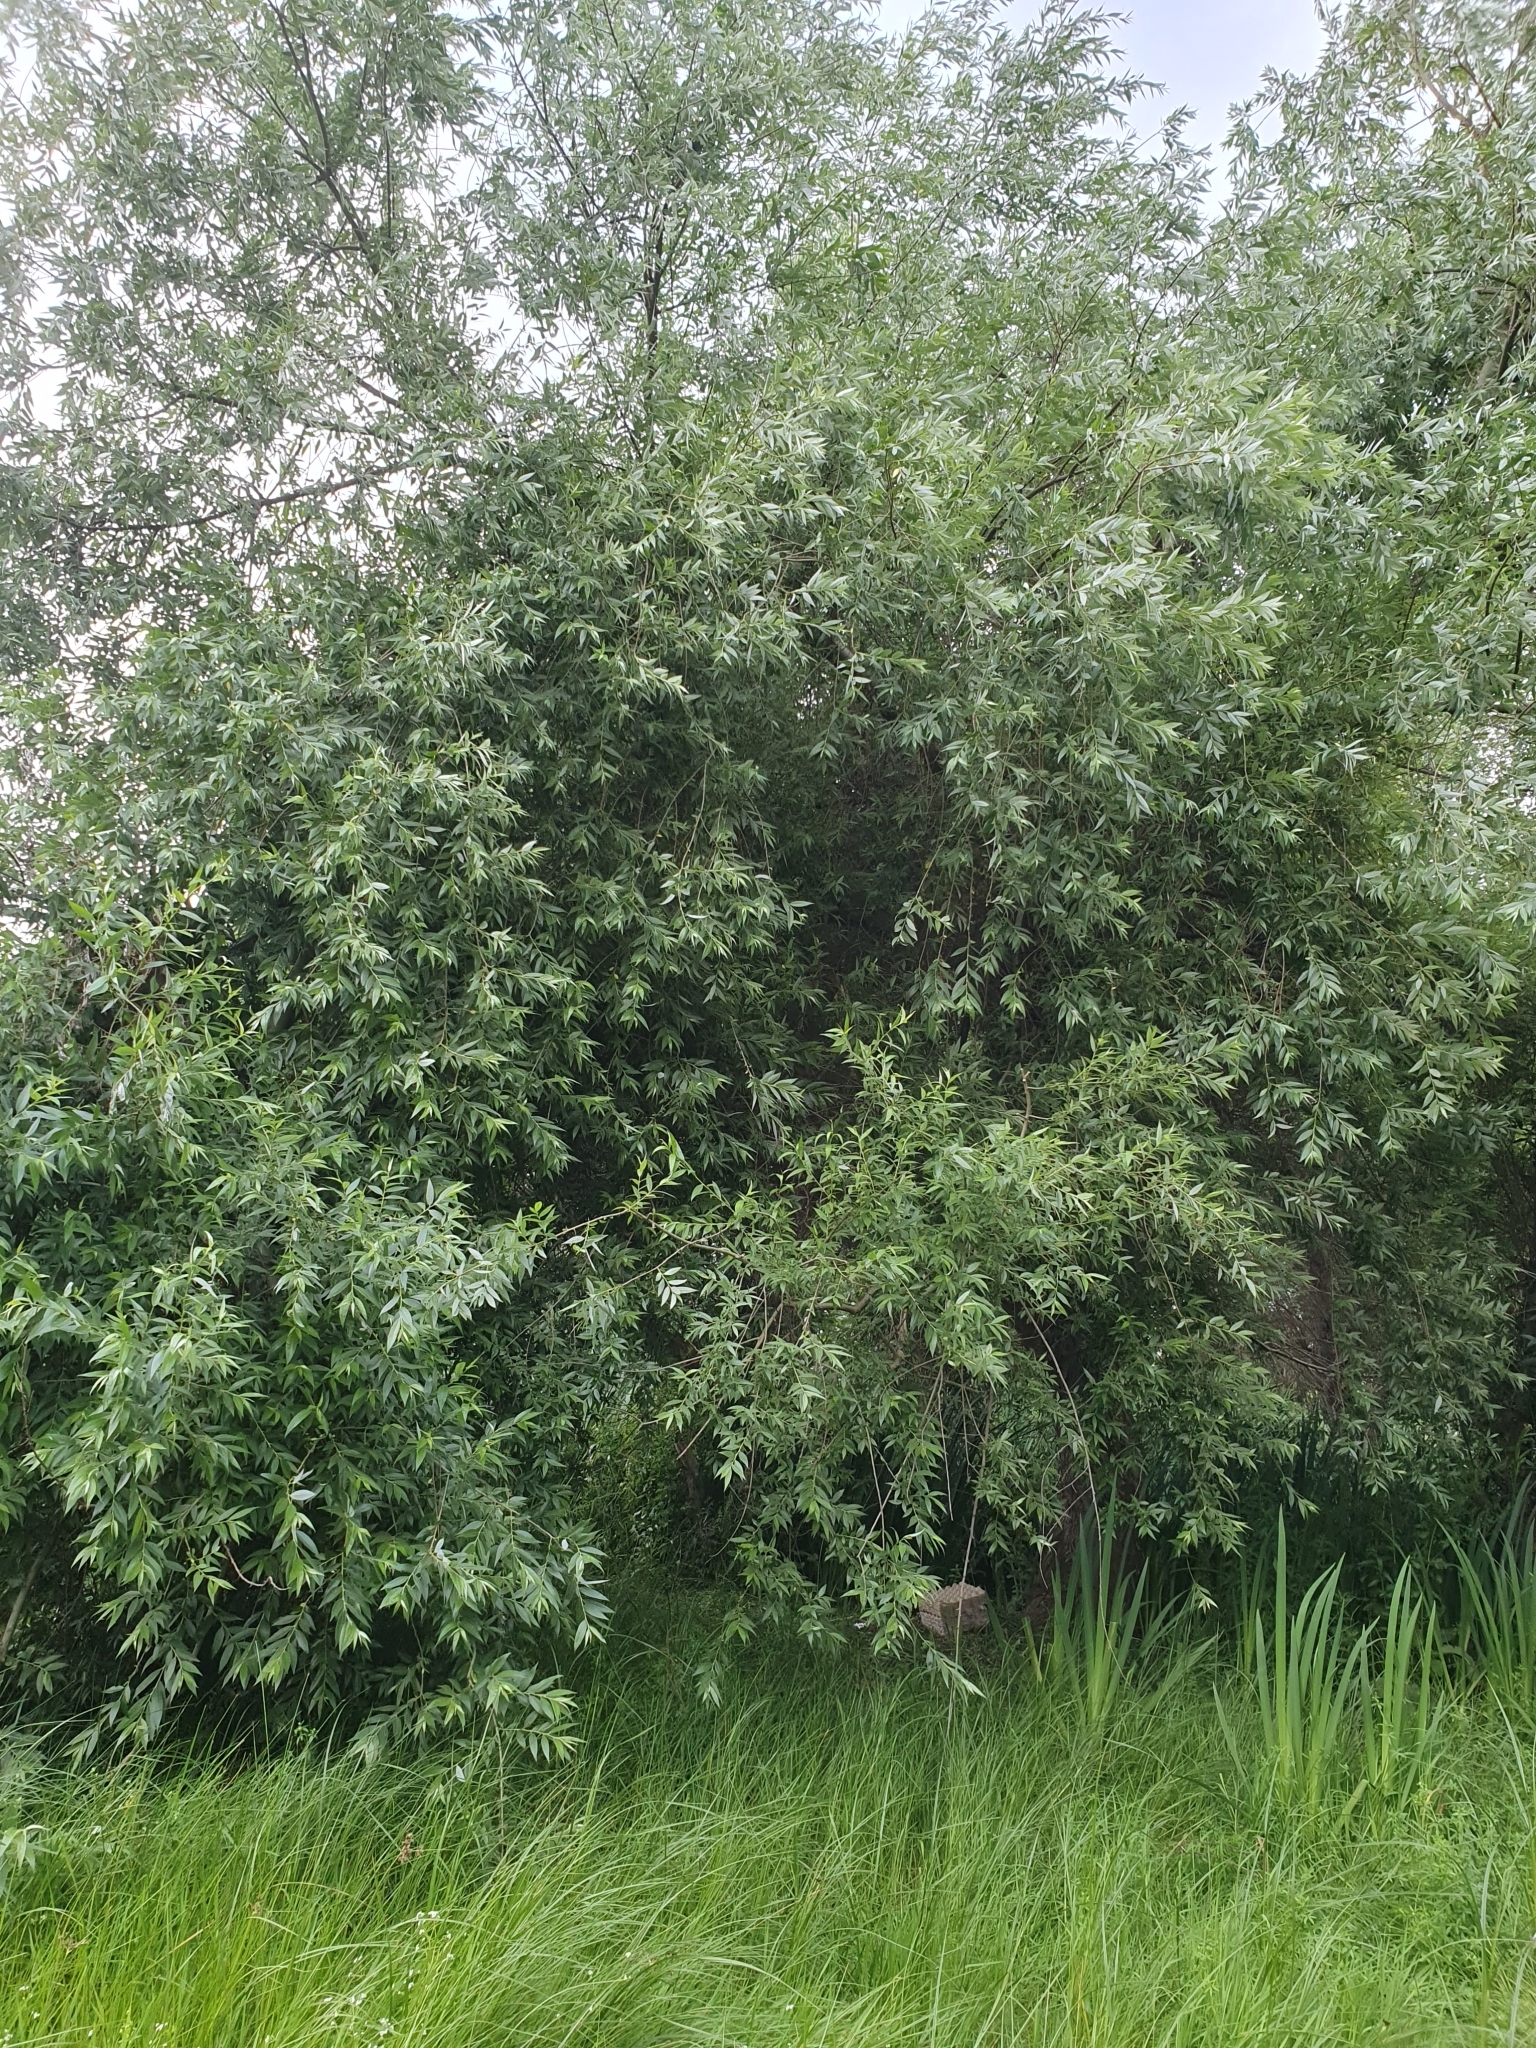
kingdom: Plantae
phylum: Tracheophyta
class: Magnoliopsida
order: Malpighiales
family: Salicaceae
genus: Salix
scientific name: Salix alba
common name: White willow
